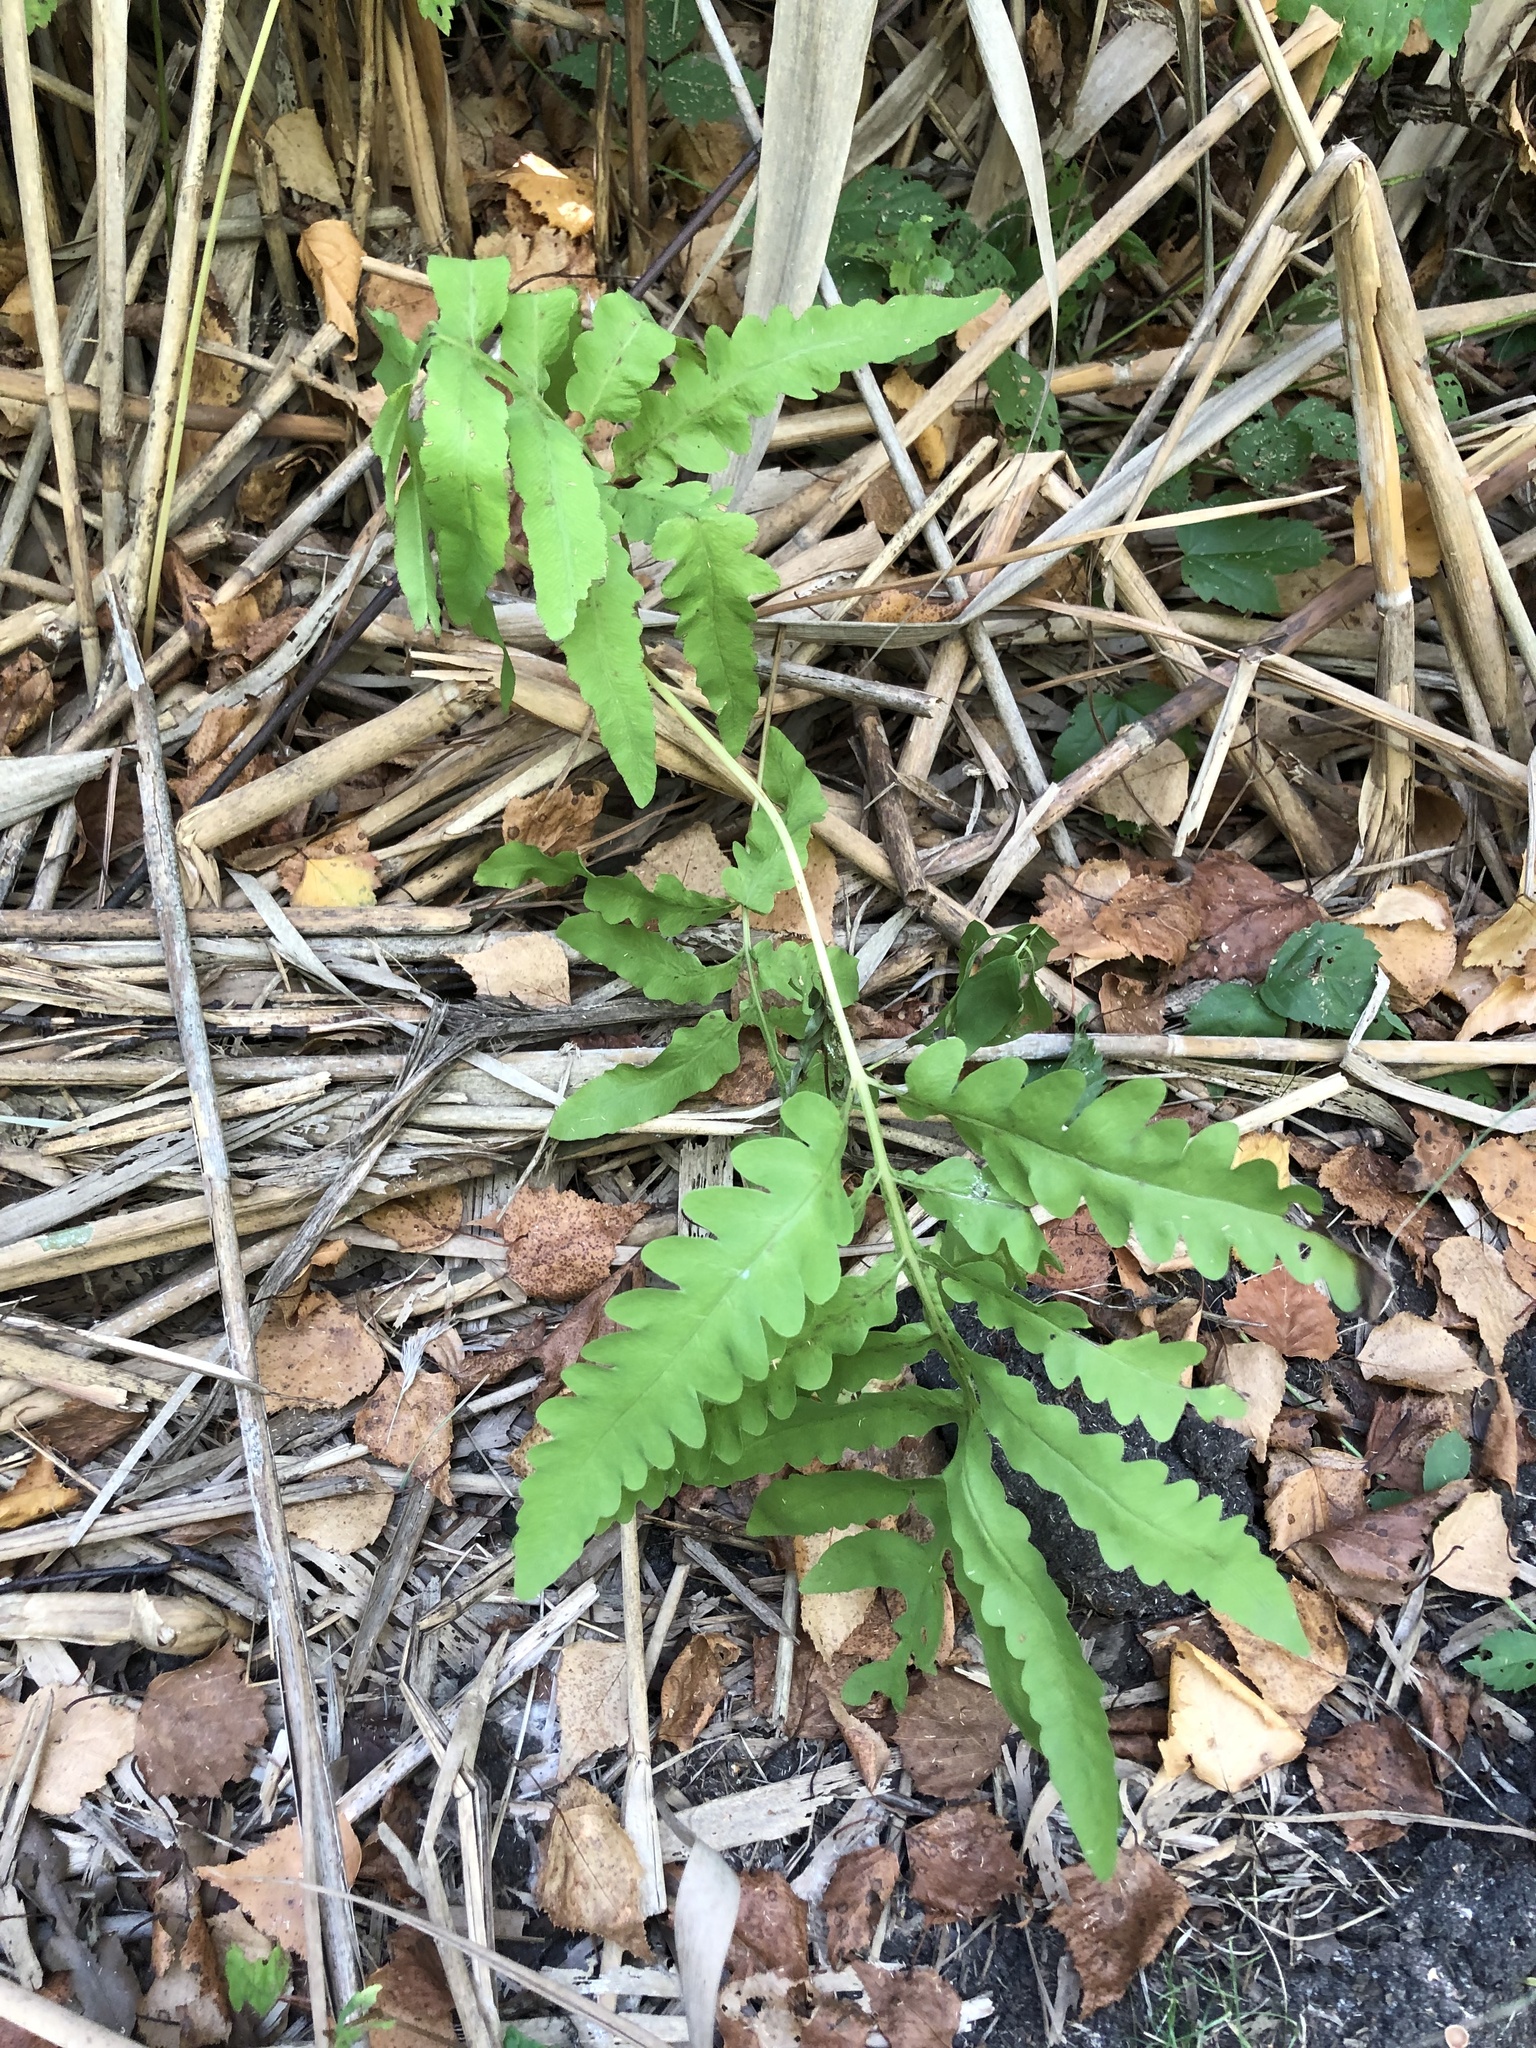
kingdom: Plantae
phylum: Tracheophyta
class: Polypodiopsida
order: Polypodiales
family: Onocleaceae
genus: Onoclea
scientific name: Onoclea sensibilis
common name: Sensitive fern
